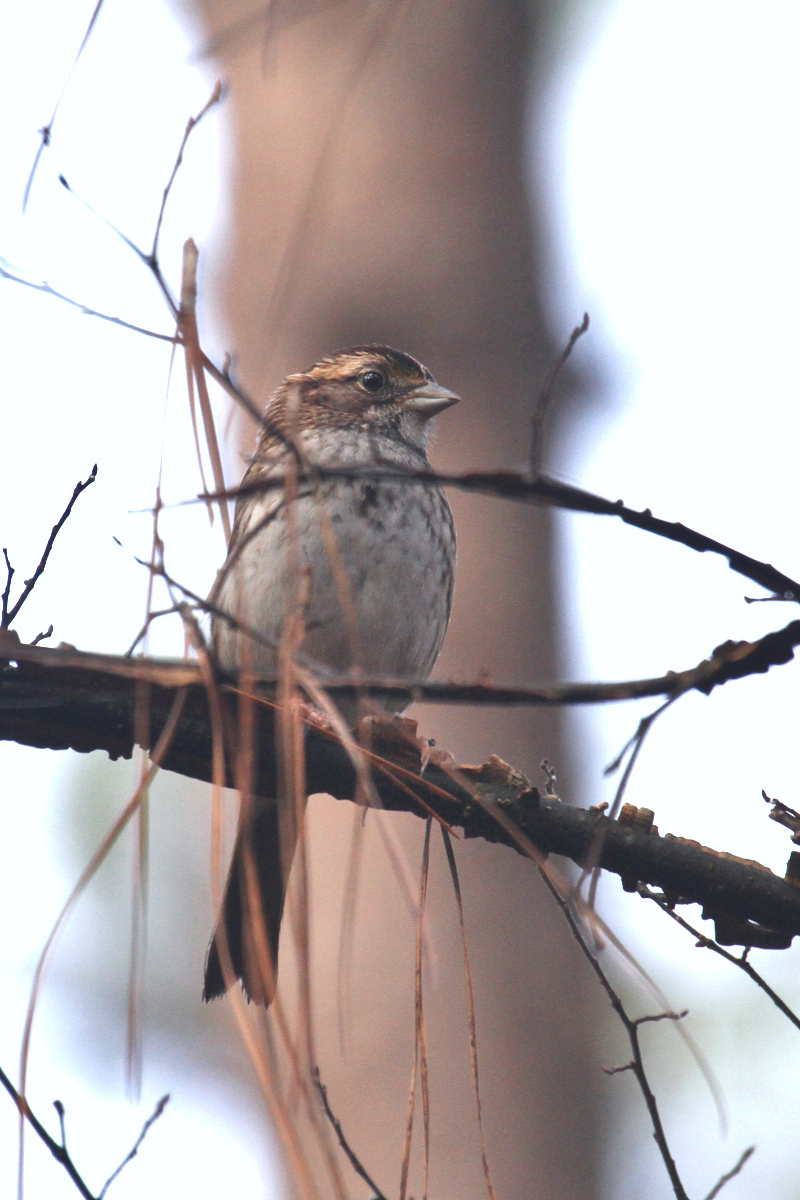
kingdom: Animalia
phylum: Chordata
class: Aves
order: Passeriformes
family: Passerellidae
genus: Zonotrichia
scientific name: Zonotrichia albicollis
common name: White-throated sparrow
